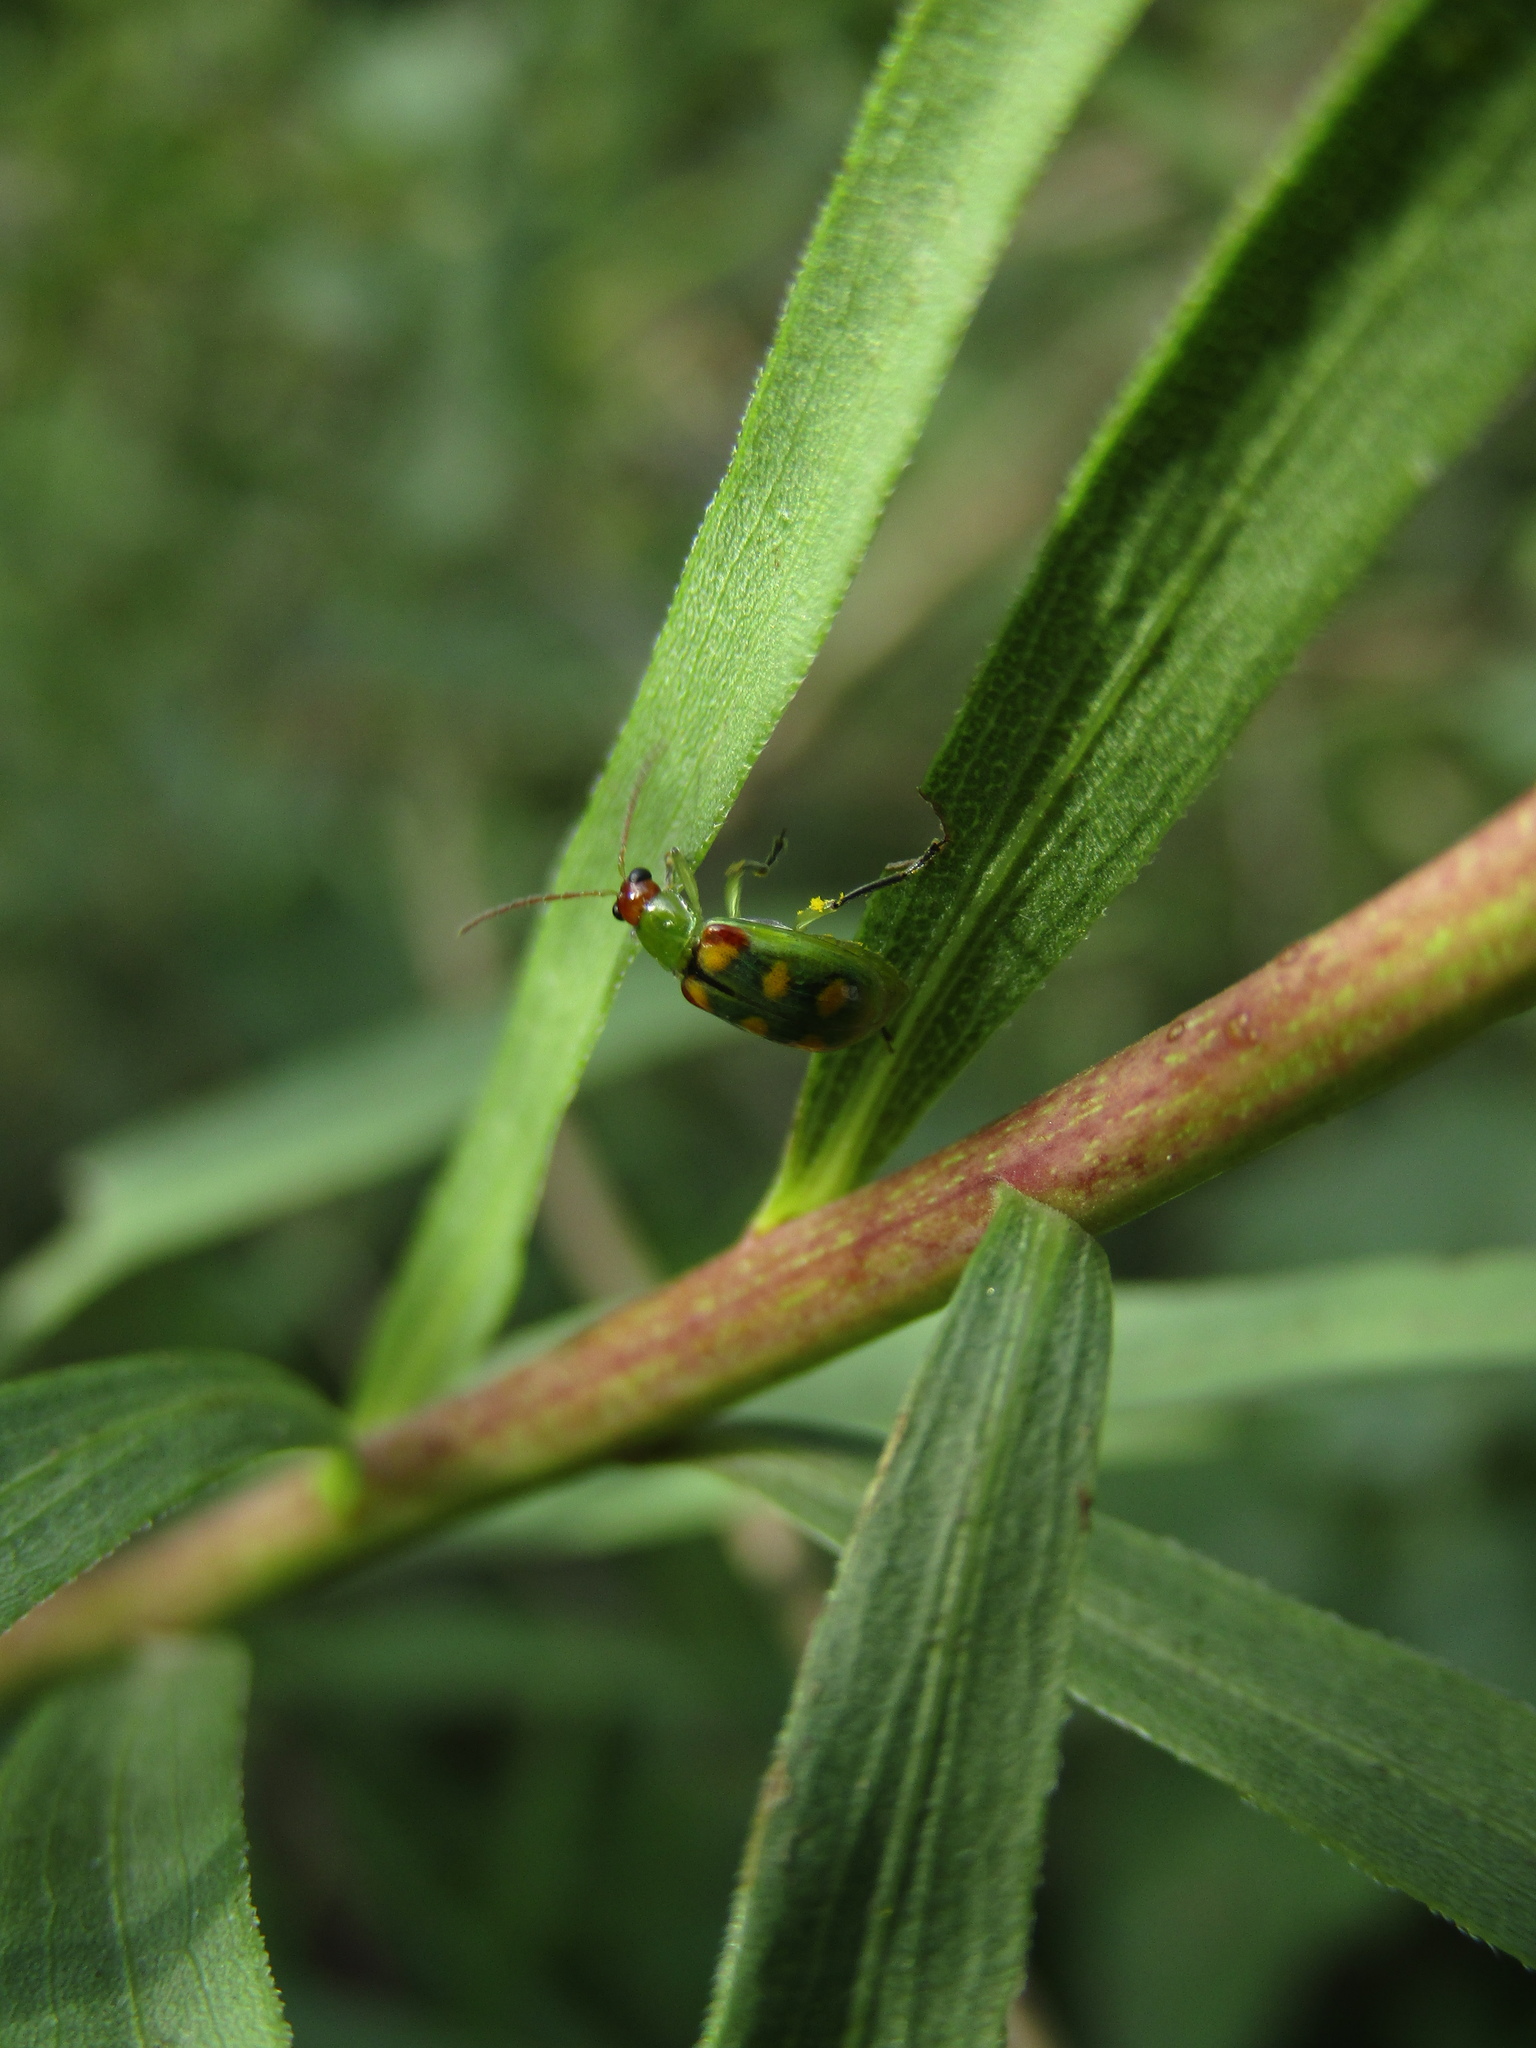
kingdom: Animalia
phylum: Arthropoda
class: Insecta
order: Coleoptera
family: Chrysomelidae
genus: Diabrotica
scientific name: Diabrotica speciosa
